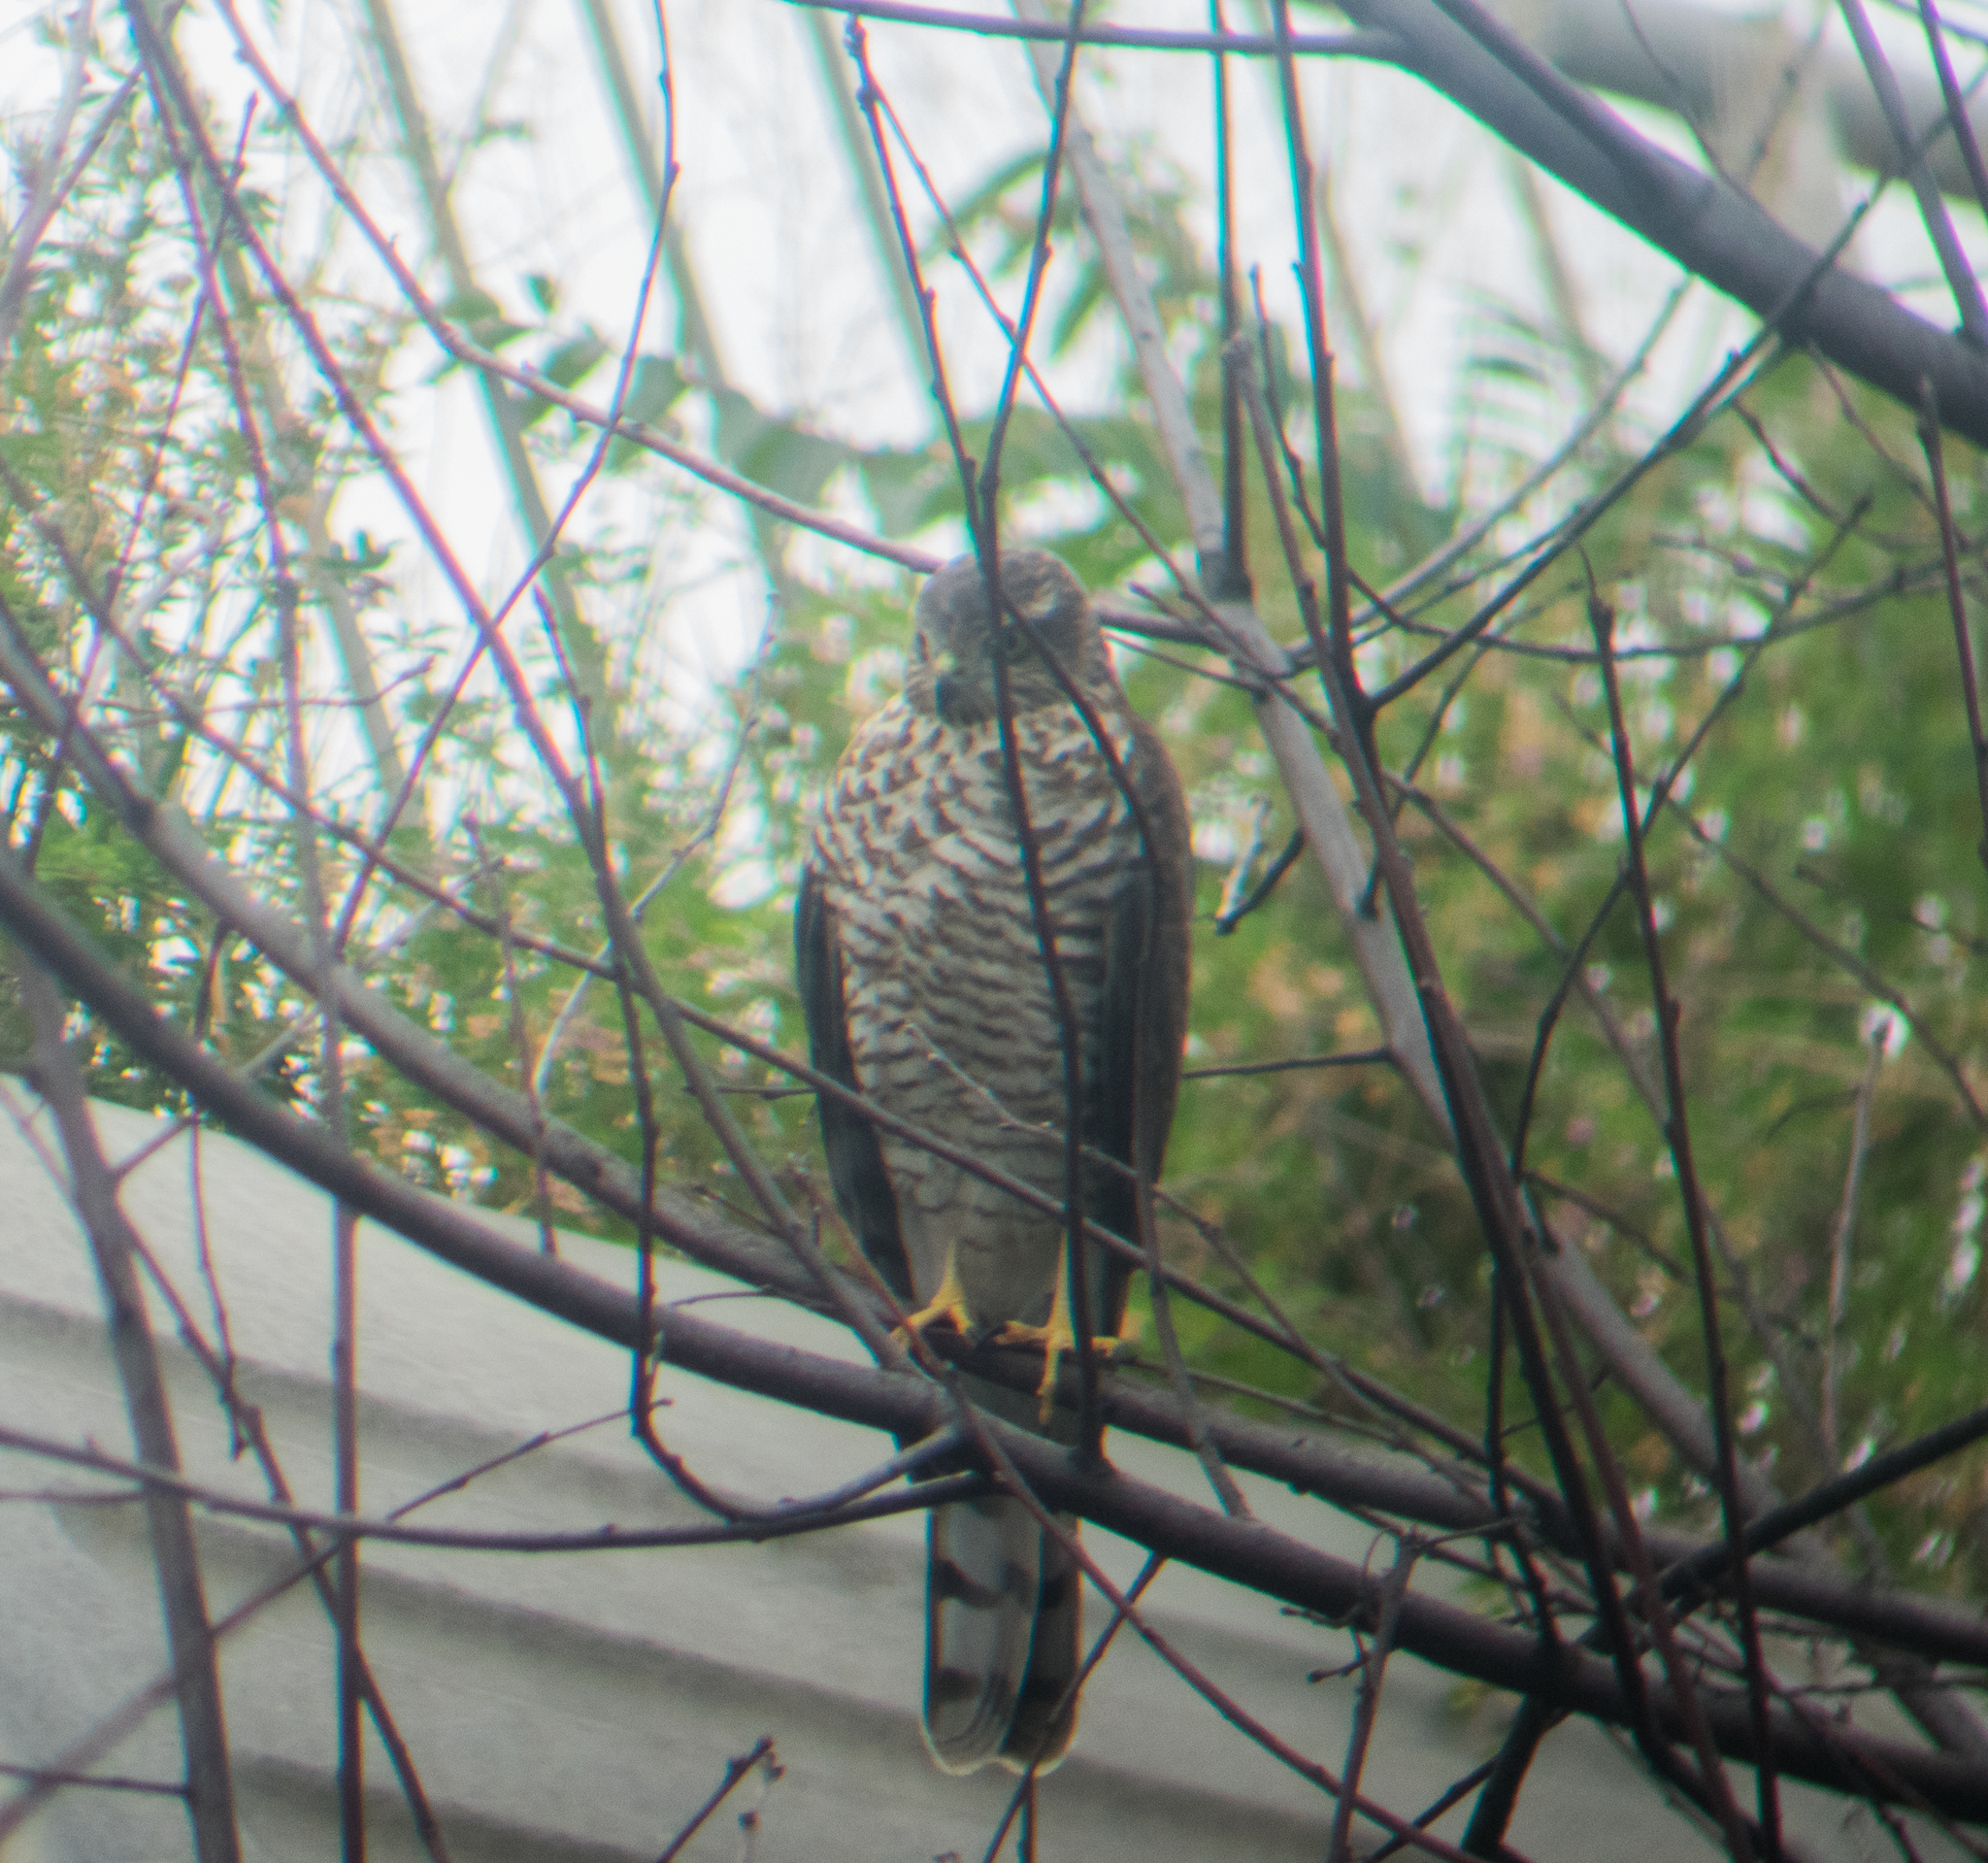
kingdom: Animalia
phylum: Chordata
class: Aves
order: Accipitriformes
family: Accipitridae
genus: Accipiter
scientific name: Accipiter nisus
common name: Eurasian sparrowhawk
